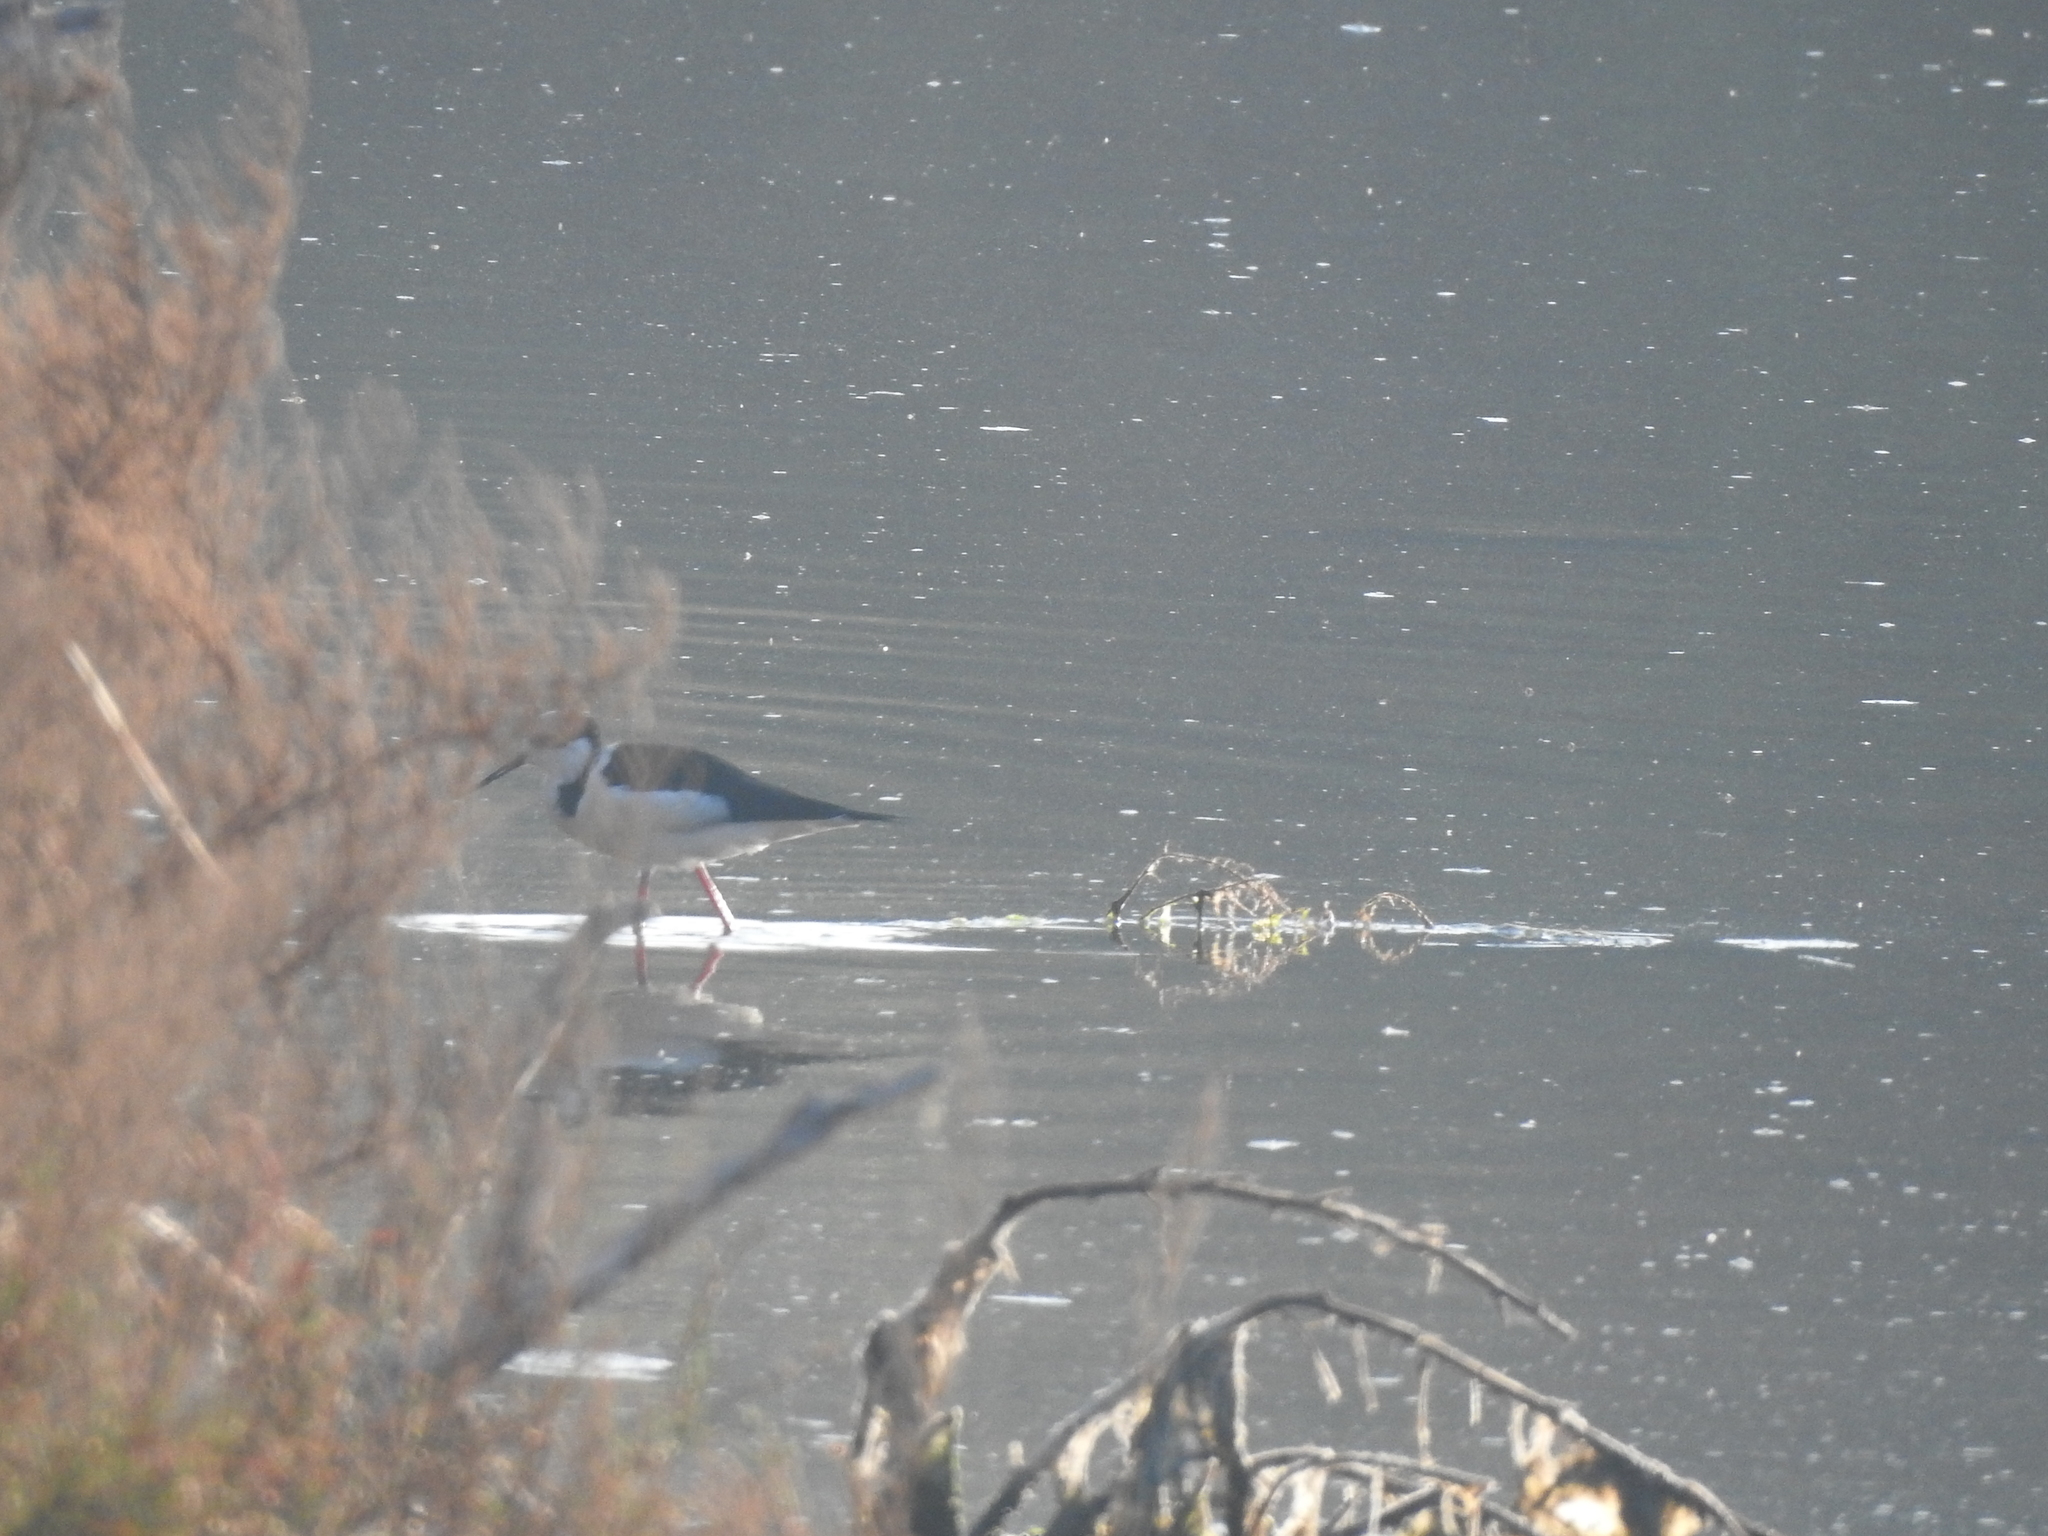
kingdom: Animalia
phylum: Chordata
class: Aves
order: Charadriiformes
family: Recurvirostridae
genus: Himantopus
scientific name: Himantopus mexicanus
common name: Black-necked stilt
